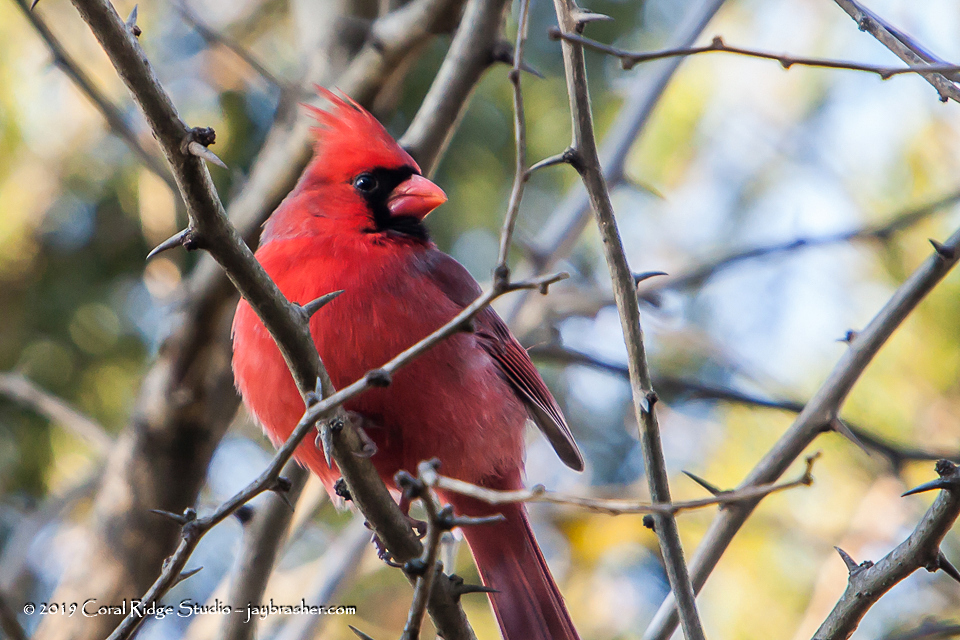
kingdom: Animalia
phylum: Chordata
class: Aves
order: Passeriformes
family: Cardinalidae
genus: Cardinalis
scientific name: Cardinalis cardinalis
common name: Northern cardinal
